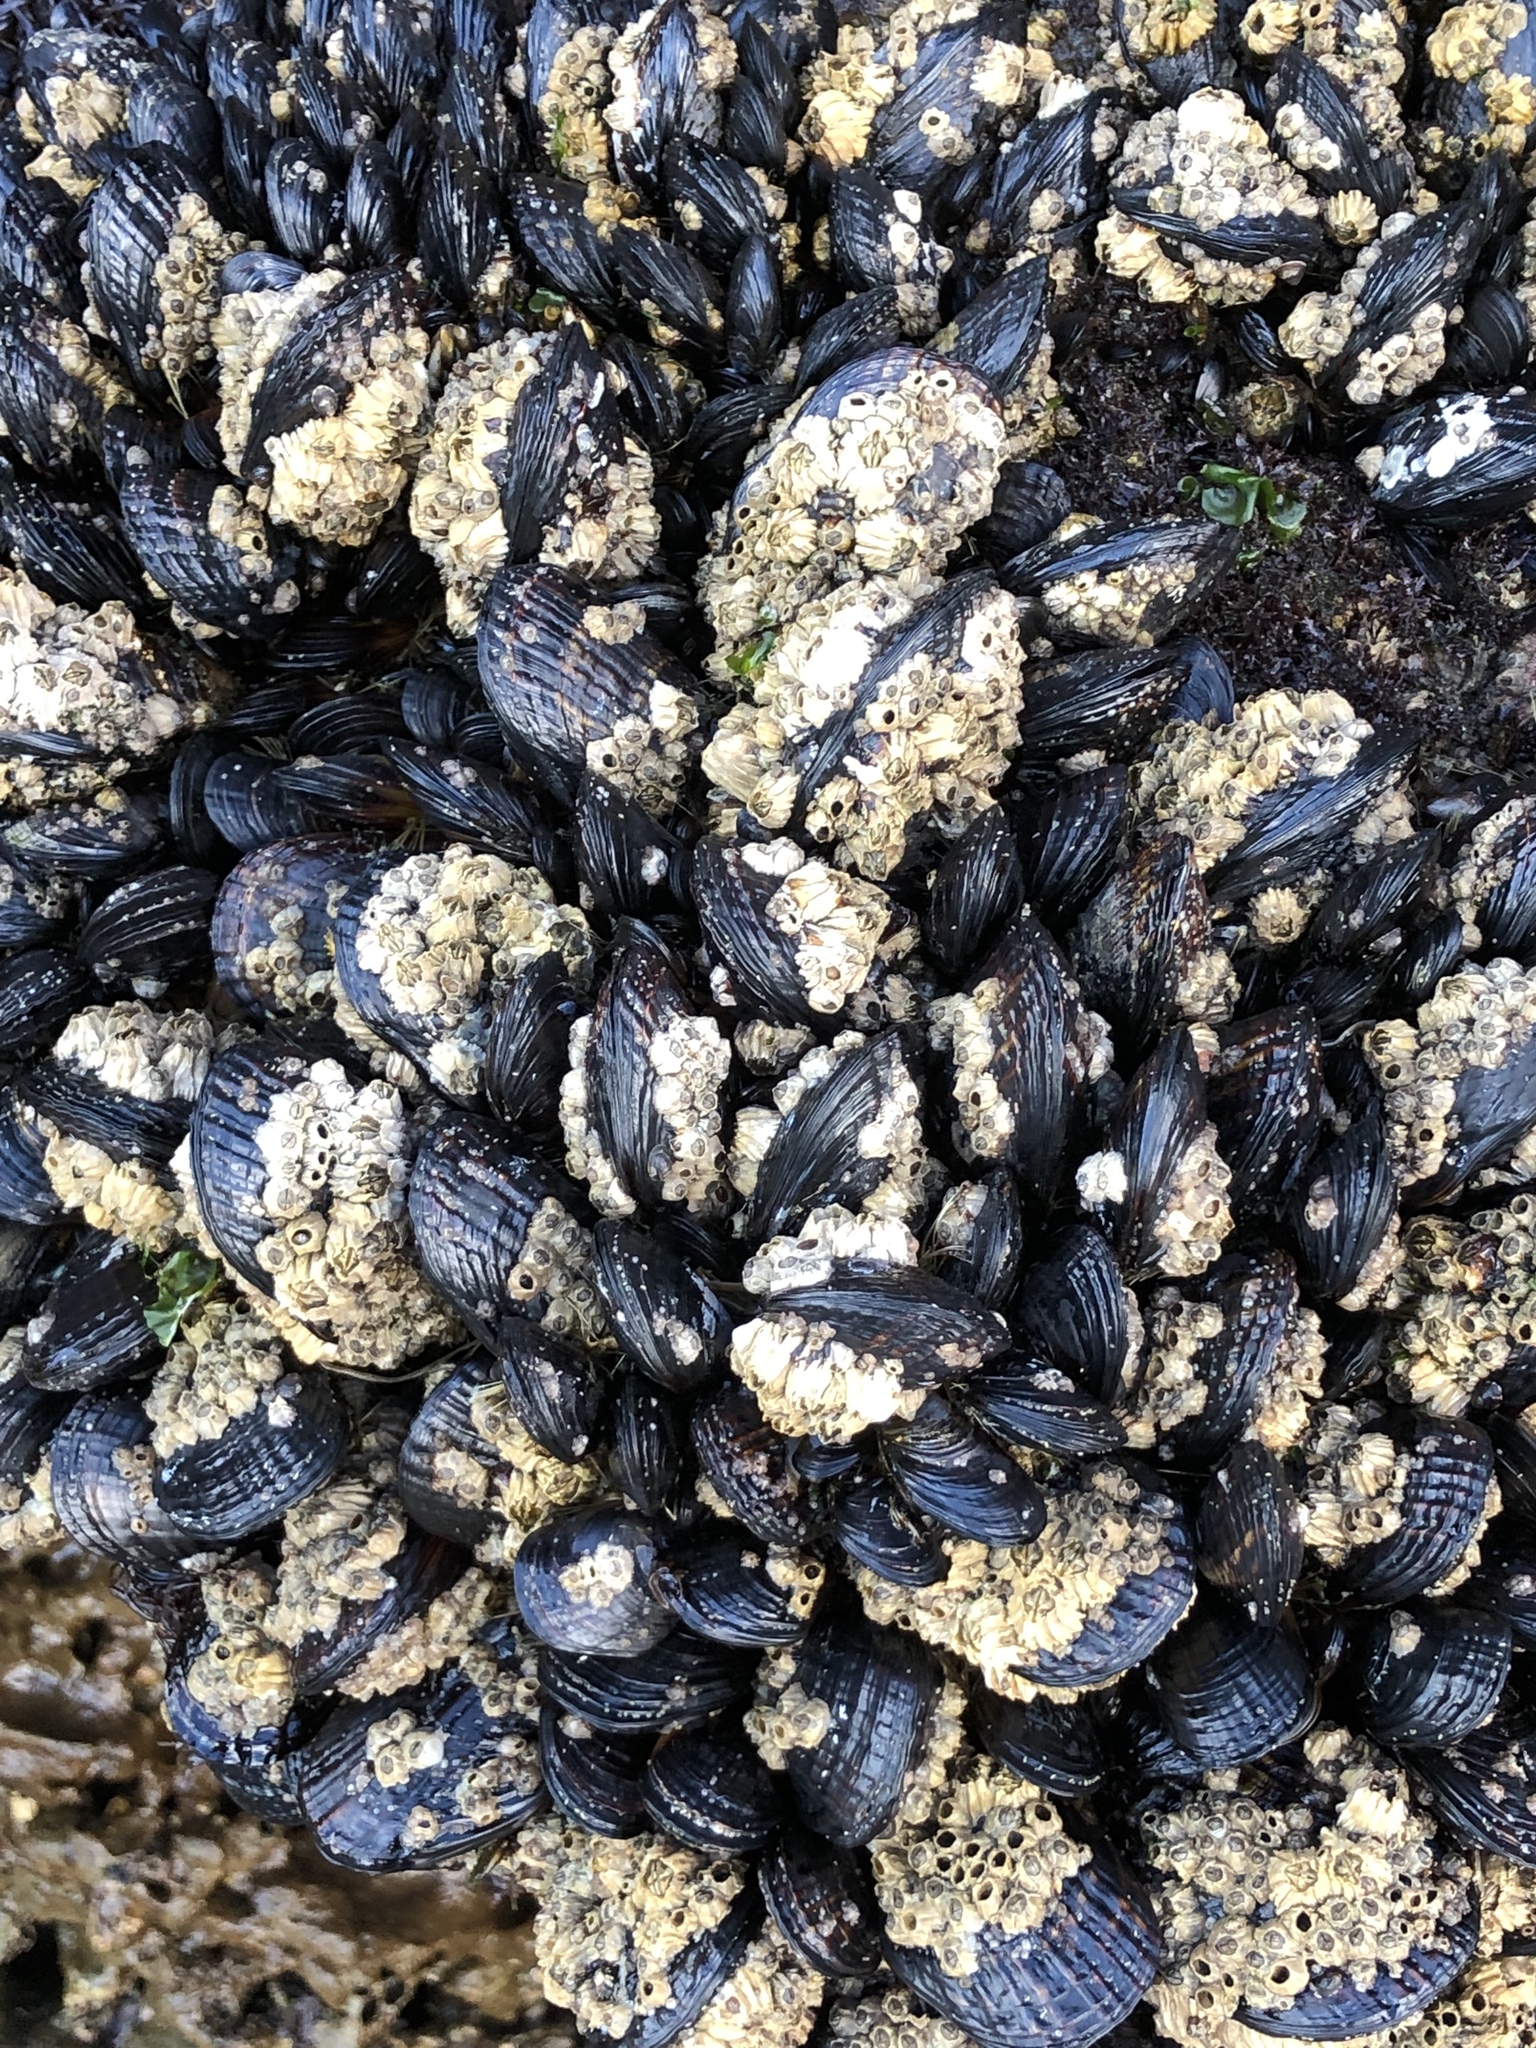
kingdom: Animalia
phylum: Mollusca
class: Bivalvia
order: Mytilida
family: Mytilidae
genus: Mytilus
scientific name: Mytilus californianus
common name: California mussel
